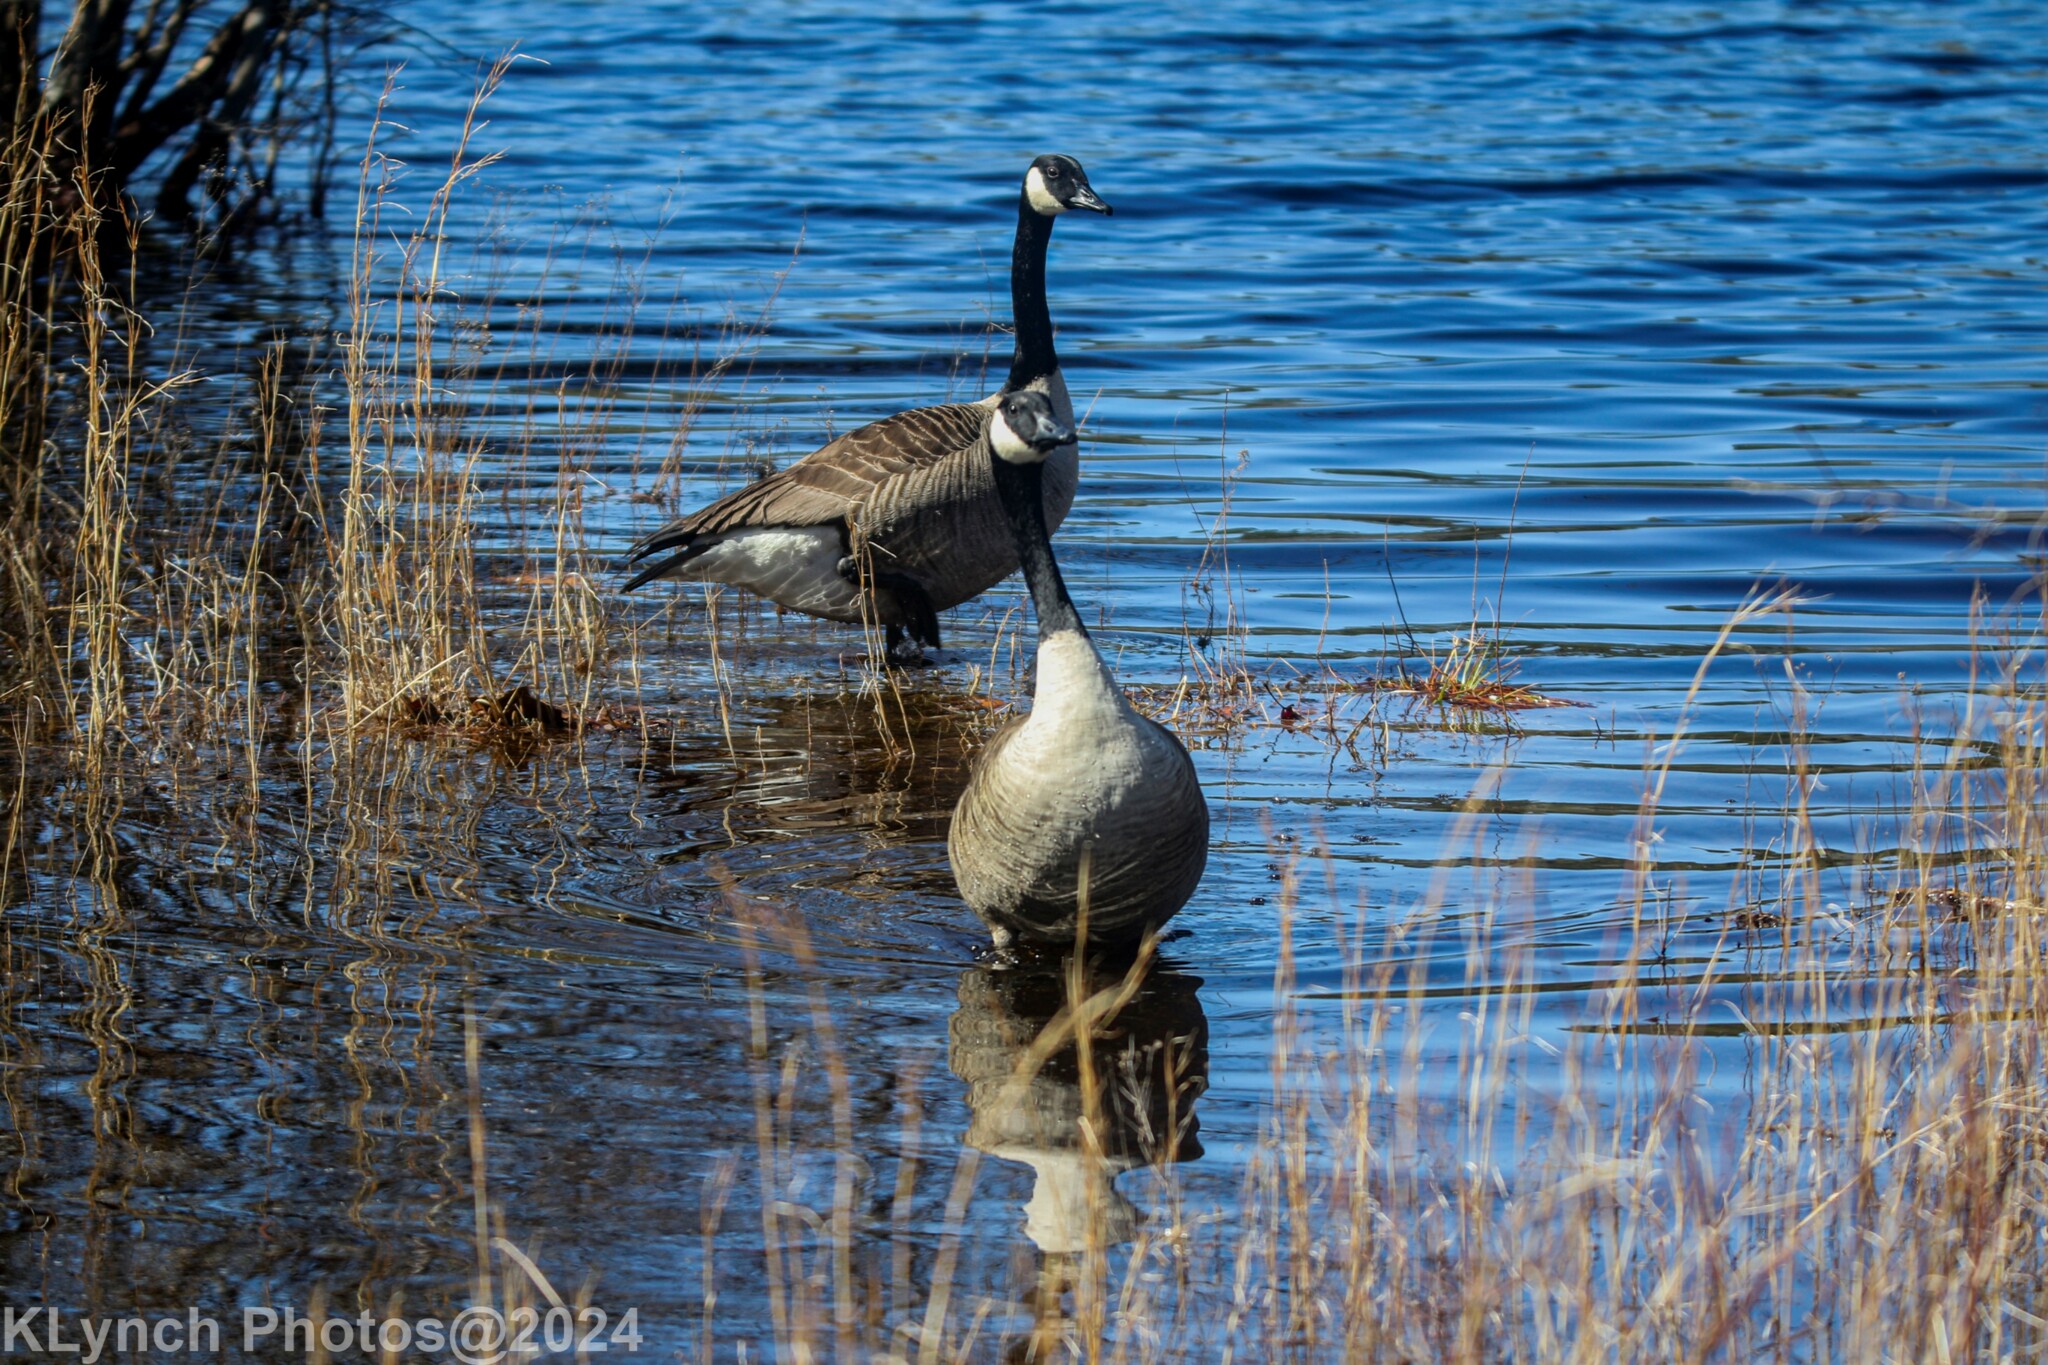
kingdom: Animalia
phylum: Chordata
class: Aves
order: Anseriformes
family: Anatidae
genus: Branta
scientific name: Branta canadensis
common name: Canada goose
